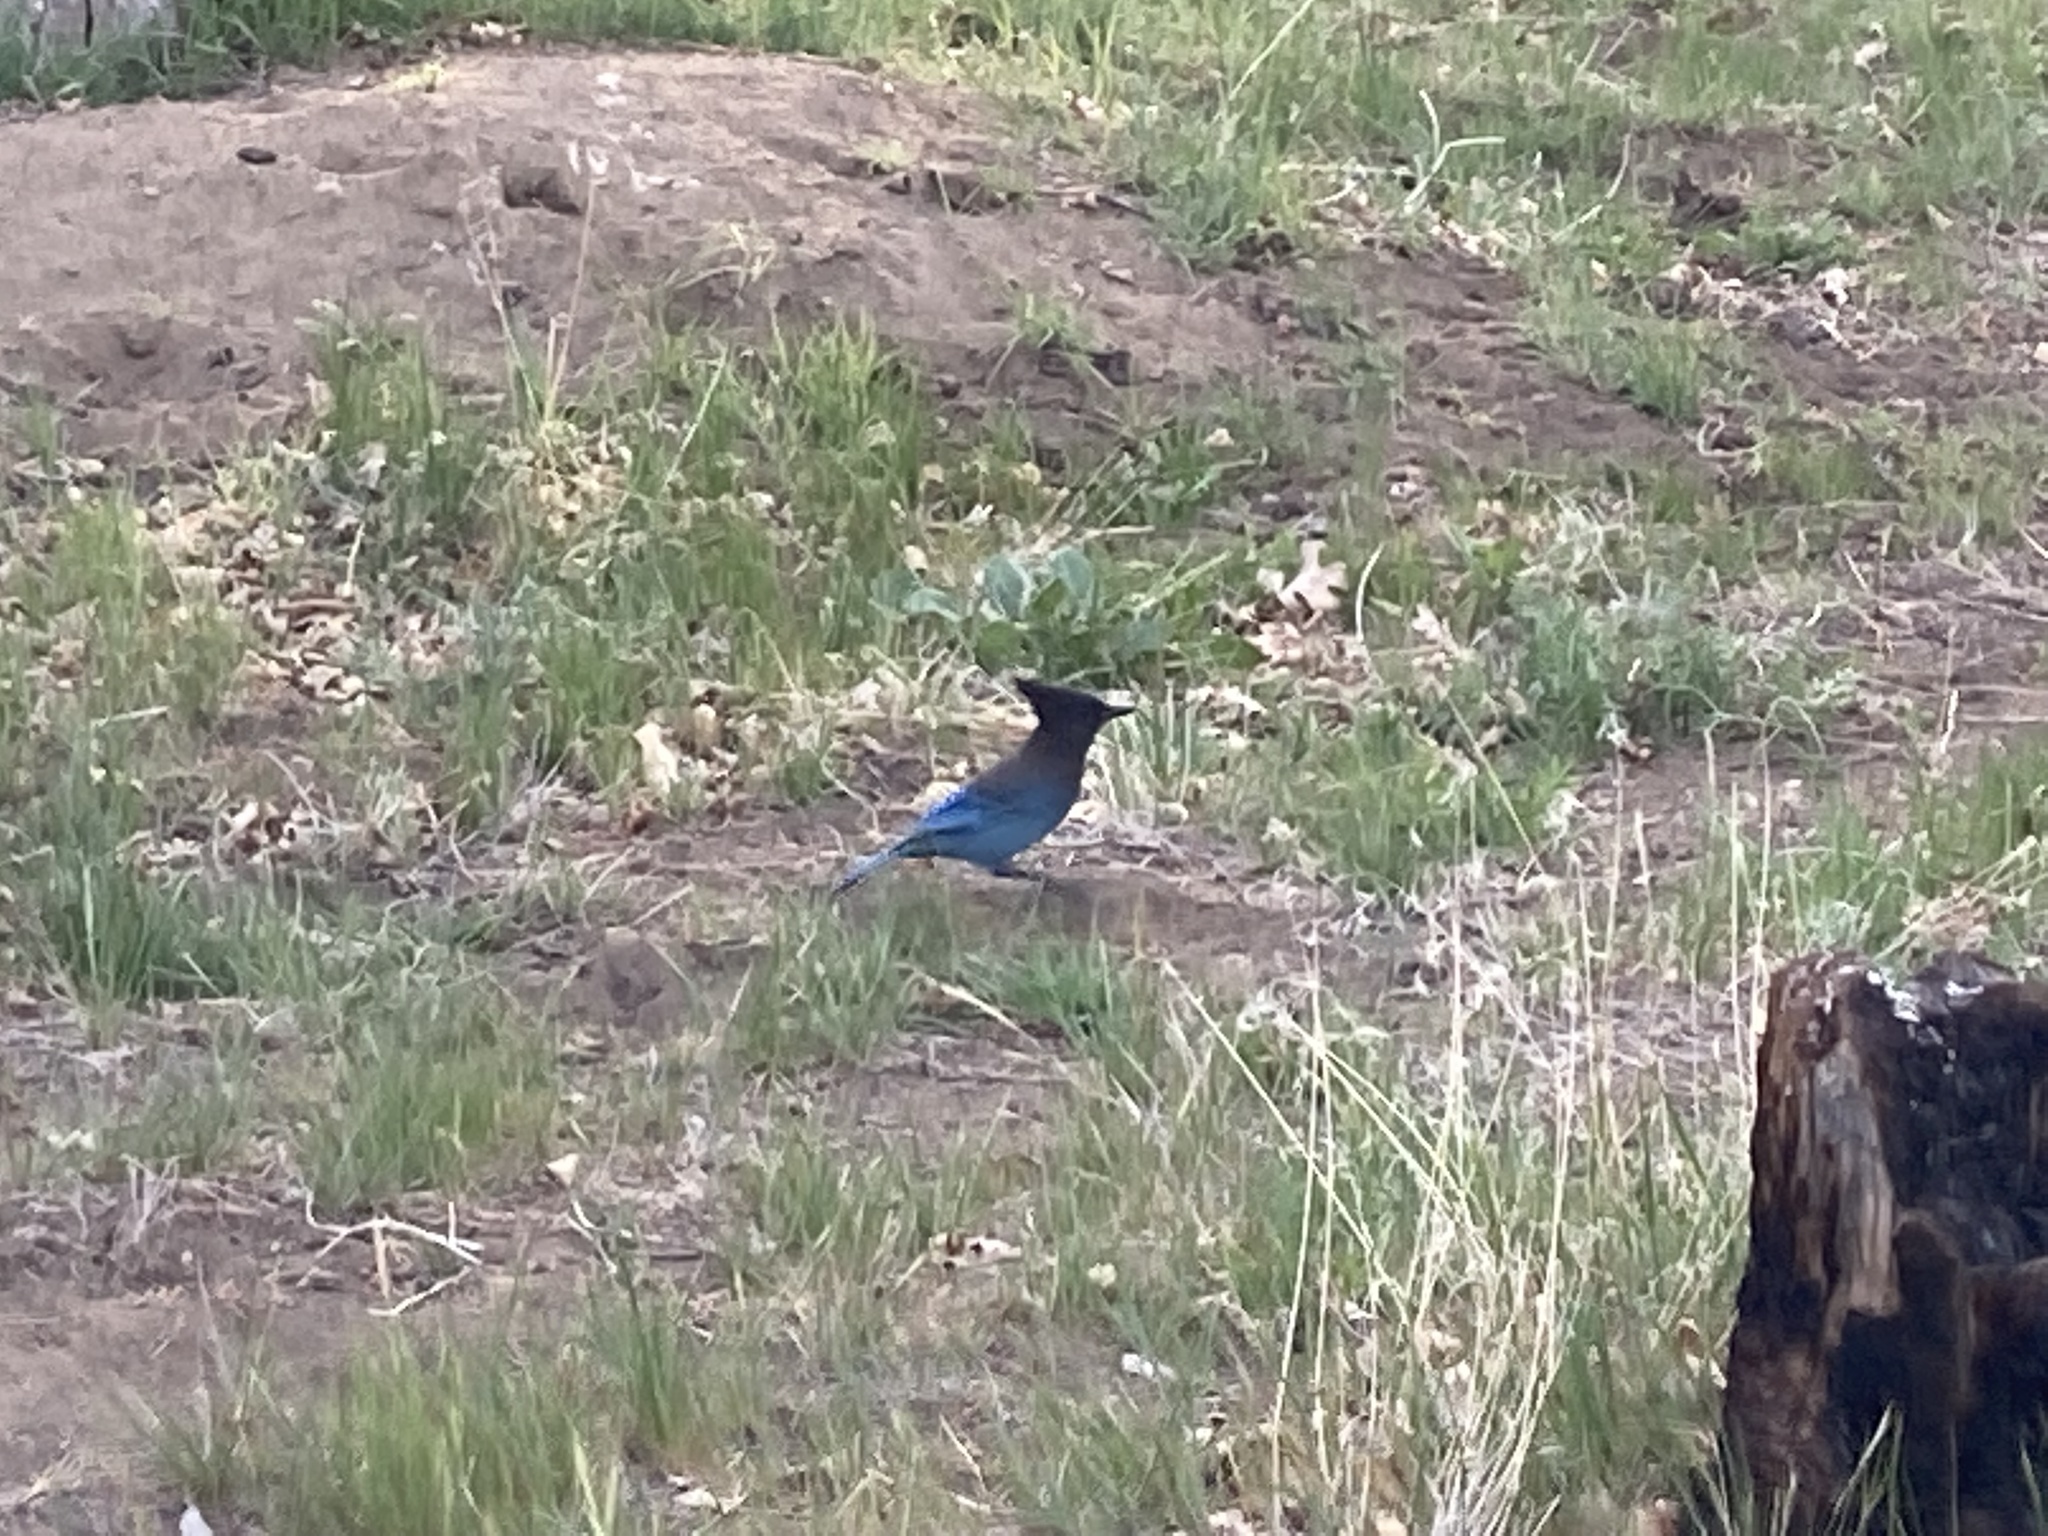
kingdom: Animalia
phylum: Chordata
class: Aves
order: Passeriformes
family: Corvidae
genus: Cyanocitta
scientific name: Cyanocitta stelleri
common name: Steller's jay
